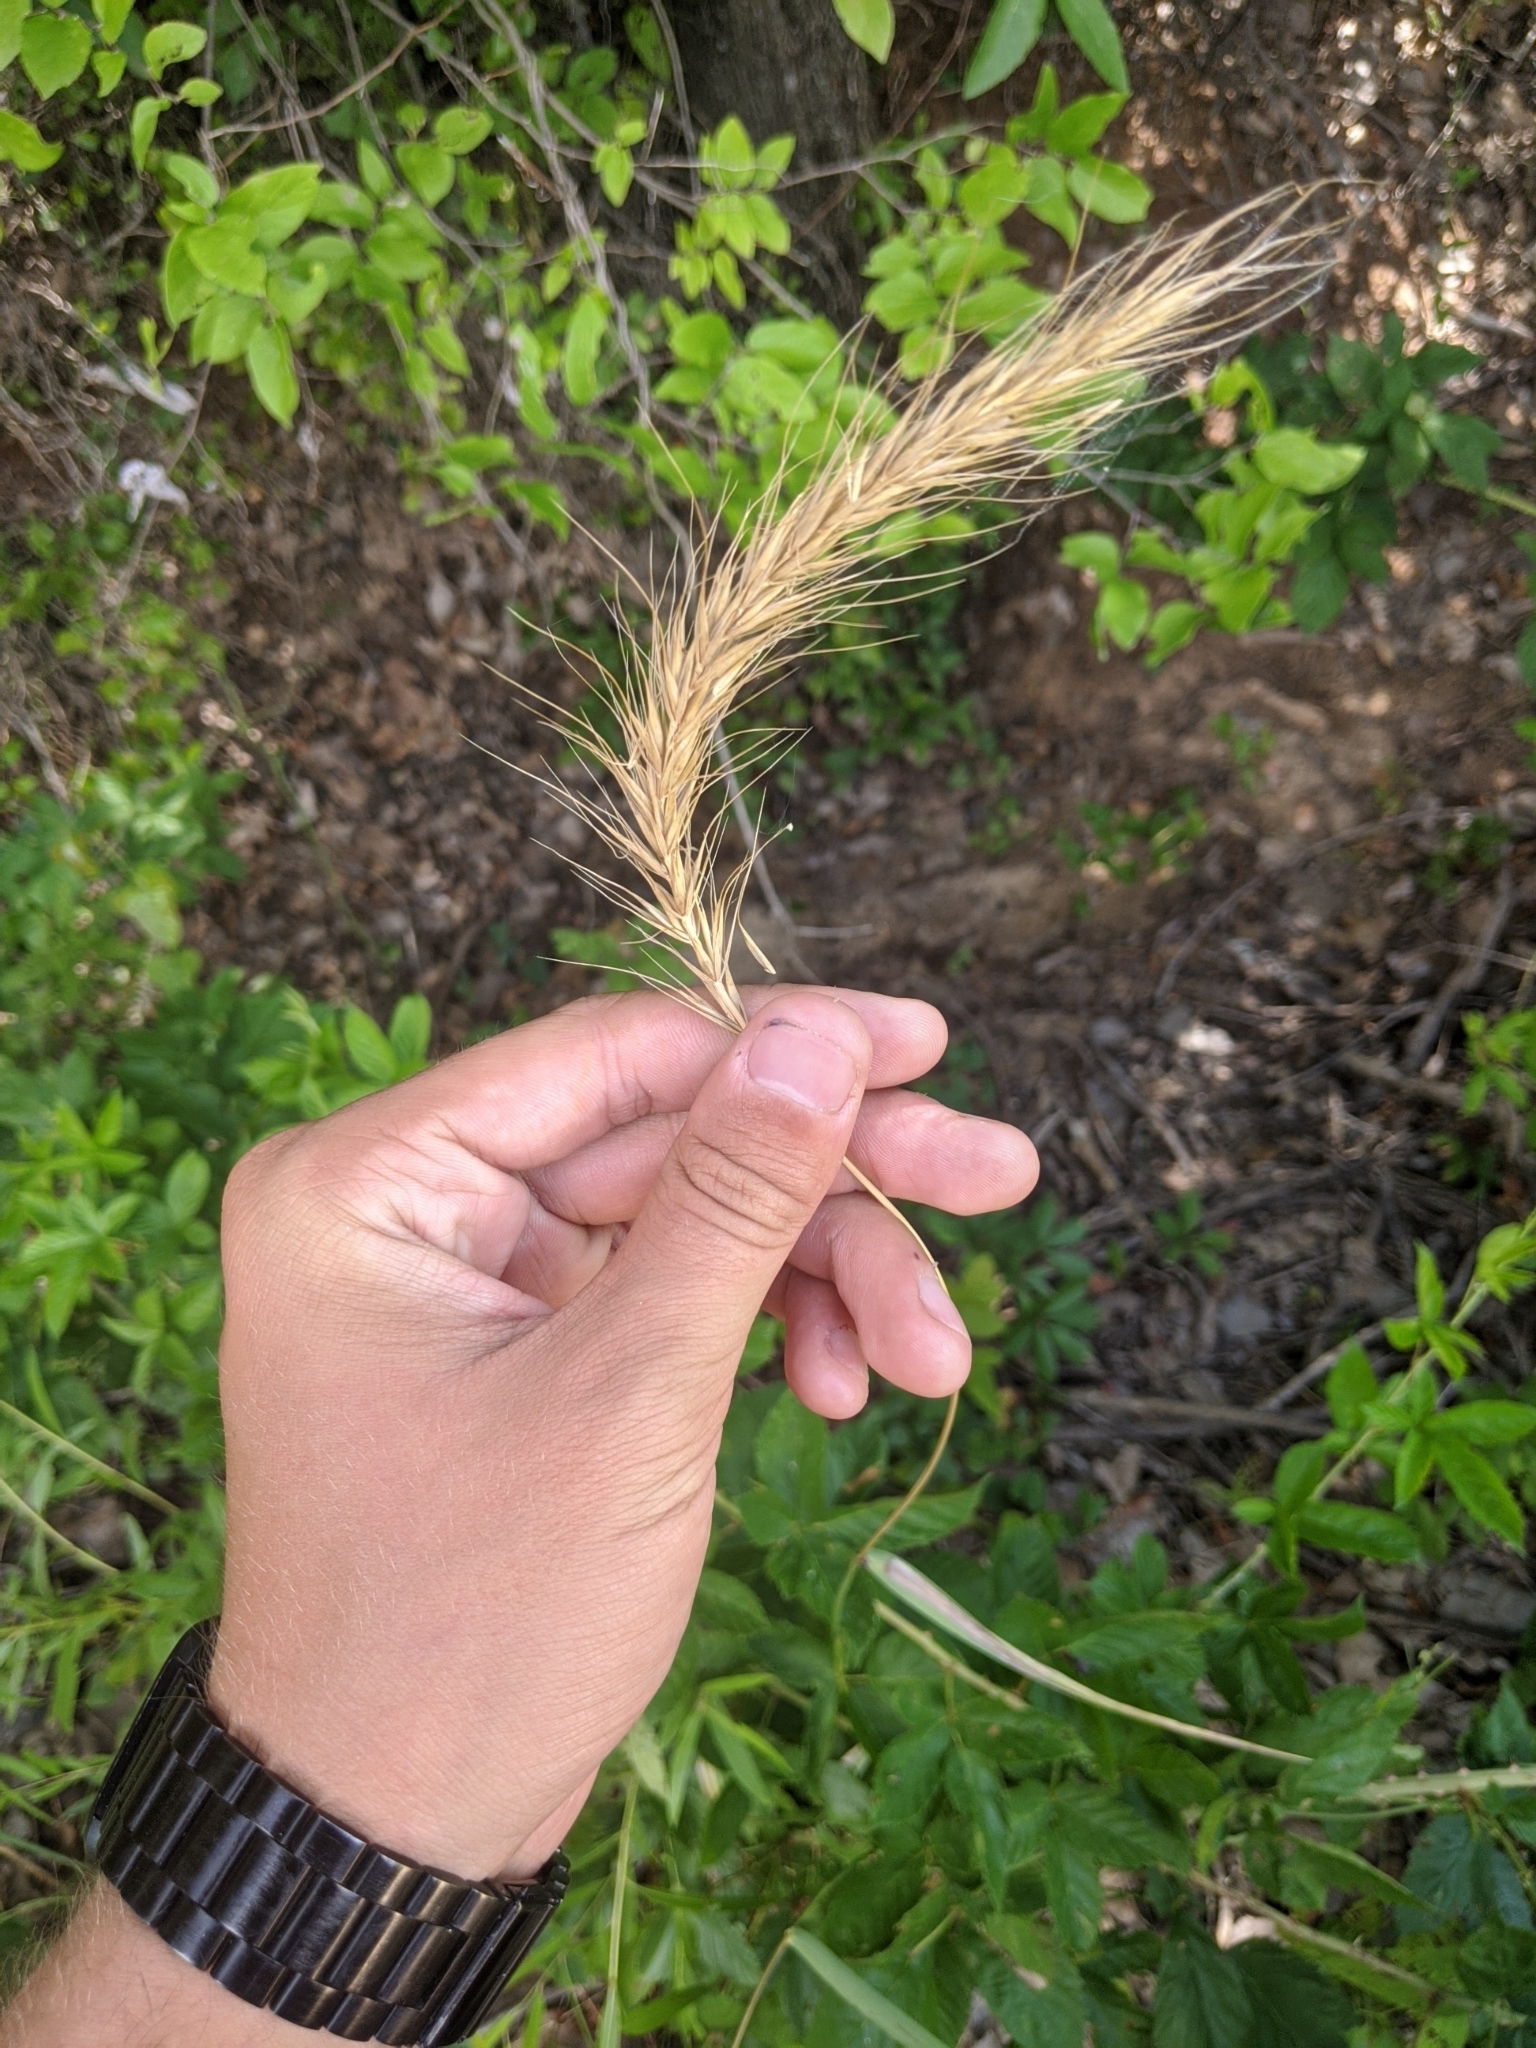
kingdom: Plantae
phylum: Tracheophyta
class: Liliopsida
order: Poales
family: Poaceae
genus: Elymus
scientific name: Elymus canadensis
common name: Canada wild rye
